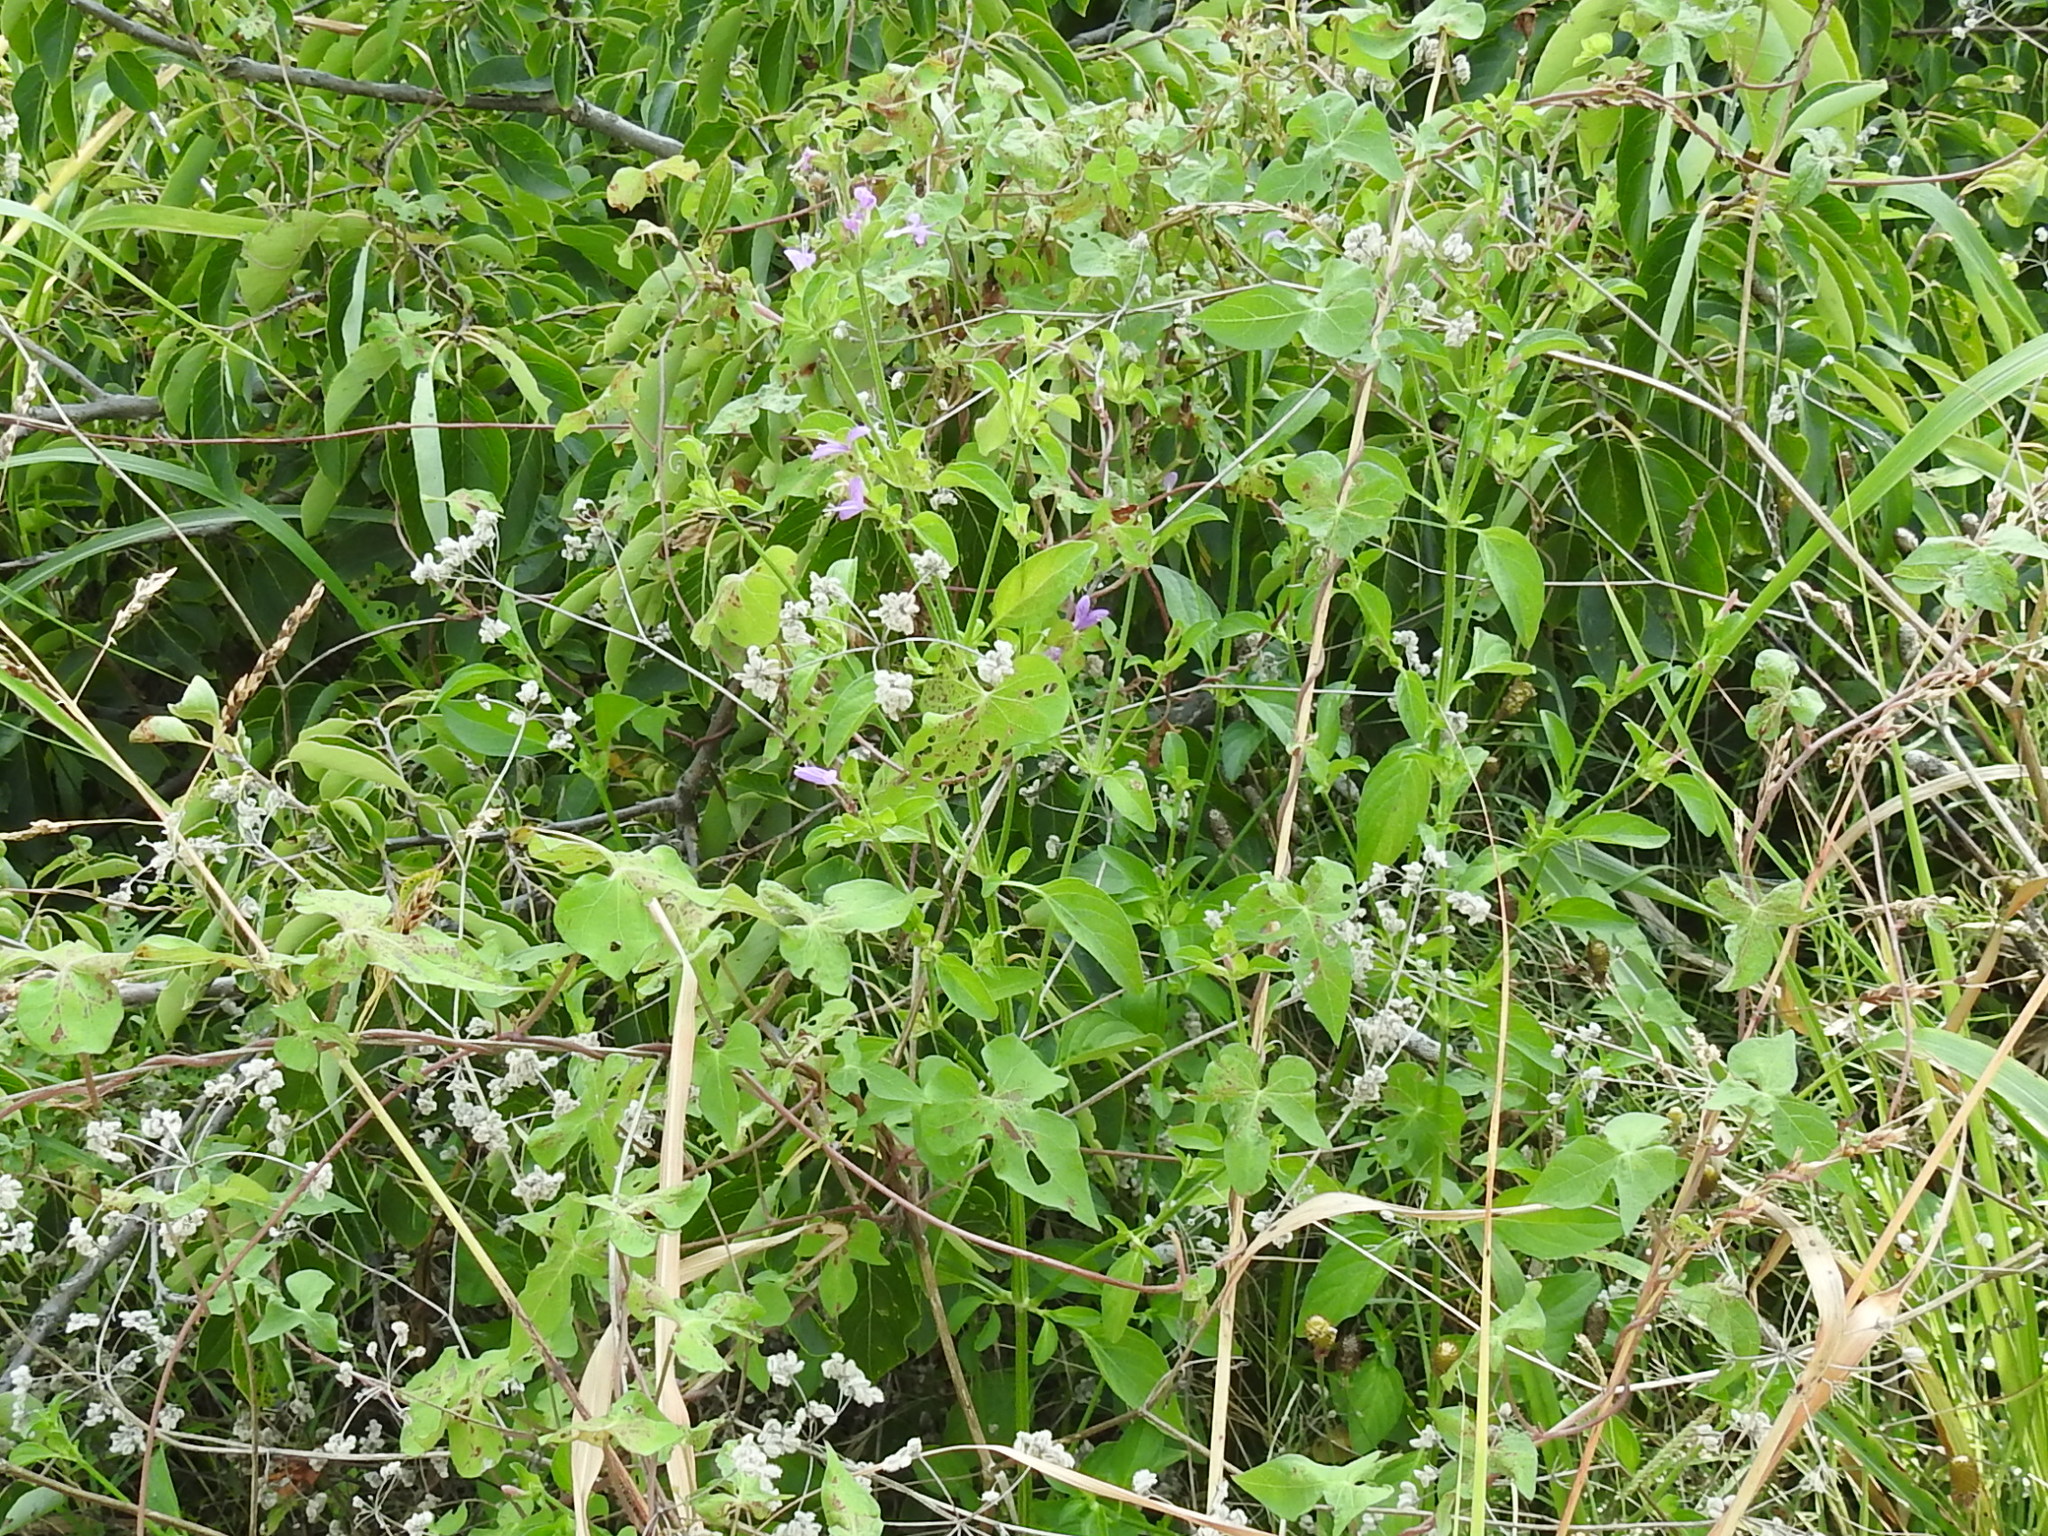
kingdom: Plantae
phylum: Tracheophyta
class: Magnoliopsida
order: Lamiales
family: Acanthaceae
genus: Dicliptera
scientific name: Dicliptera brachiata
